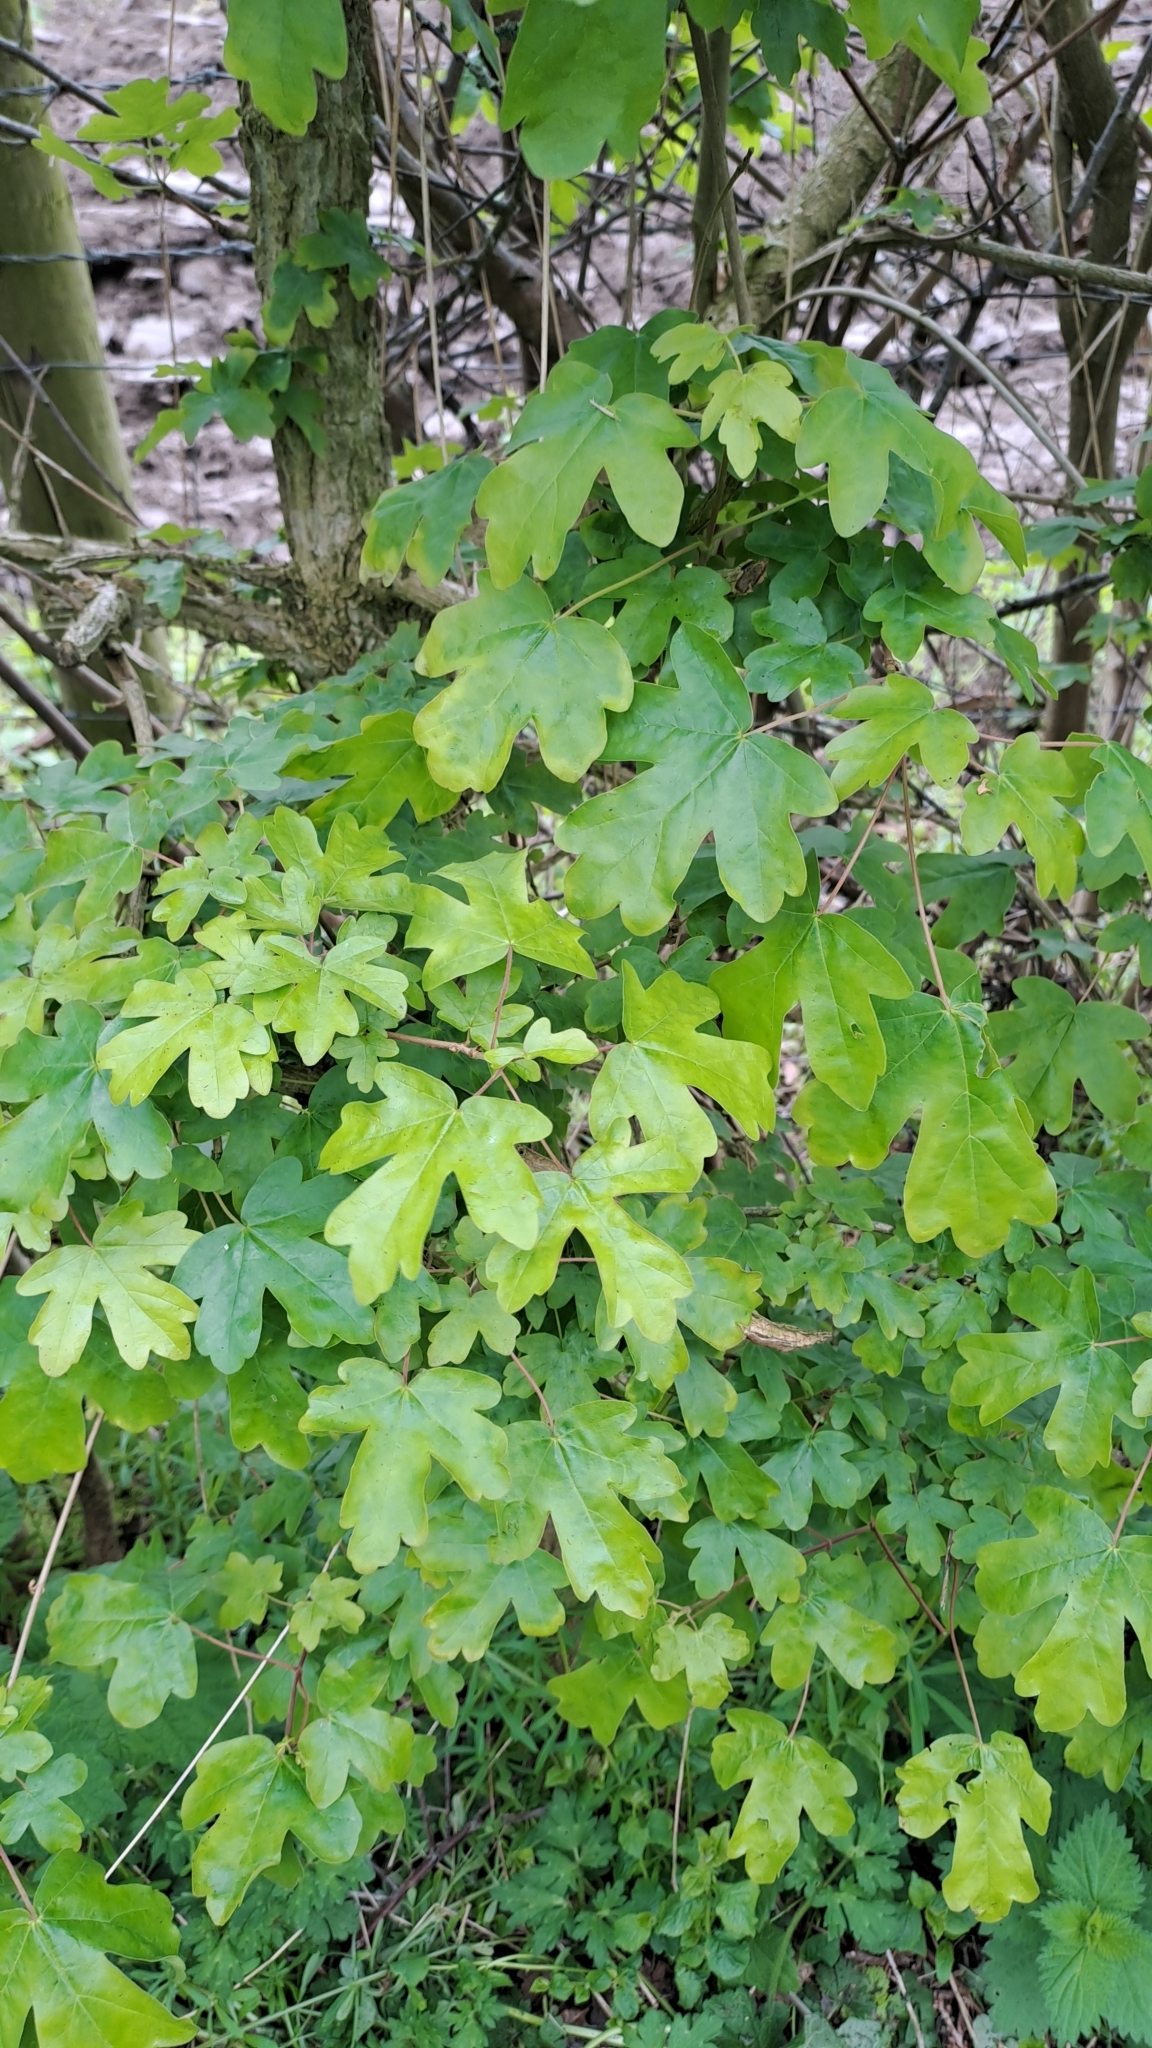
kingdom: Plantae
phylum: Tracheophyta
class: Magnoliopsida
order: Sapindales
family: Sapindaceae
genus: Acer
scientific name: Acer campestre
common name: Field maple
